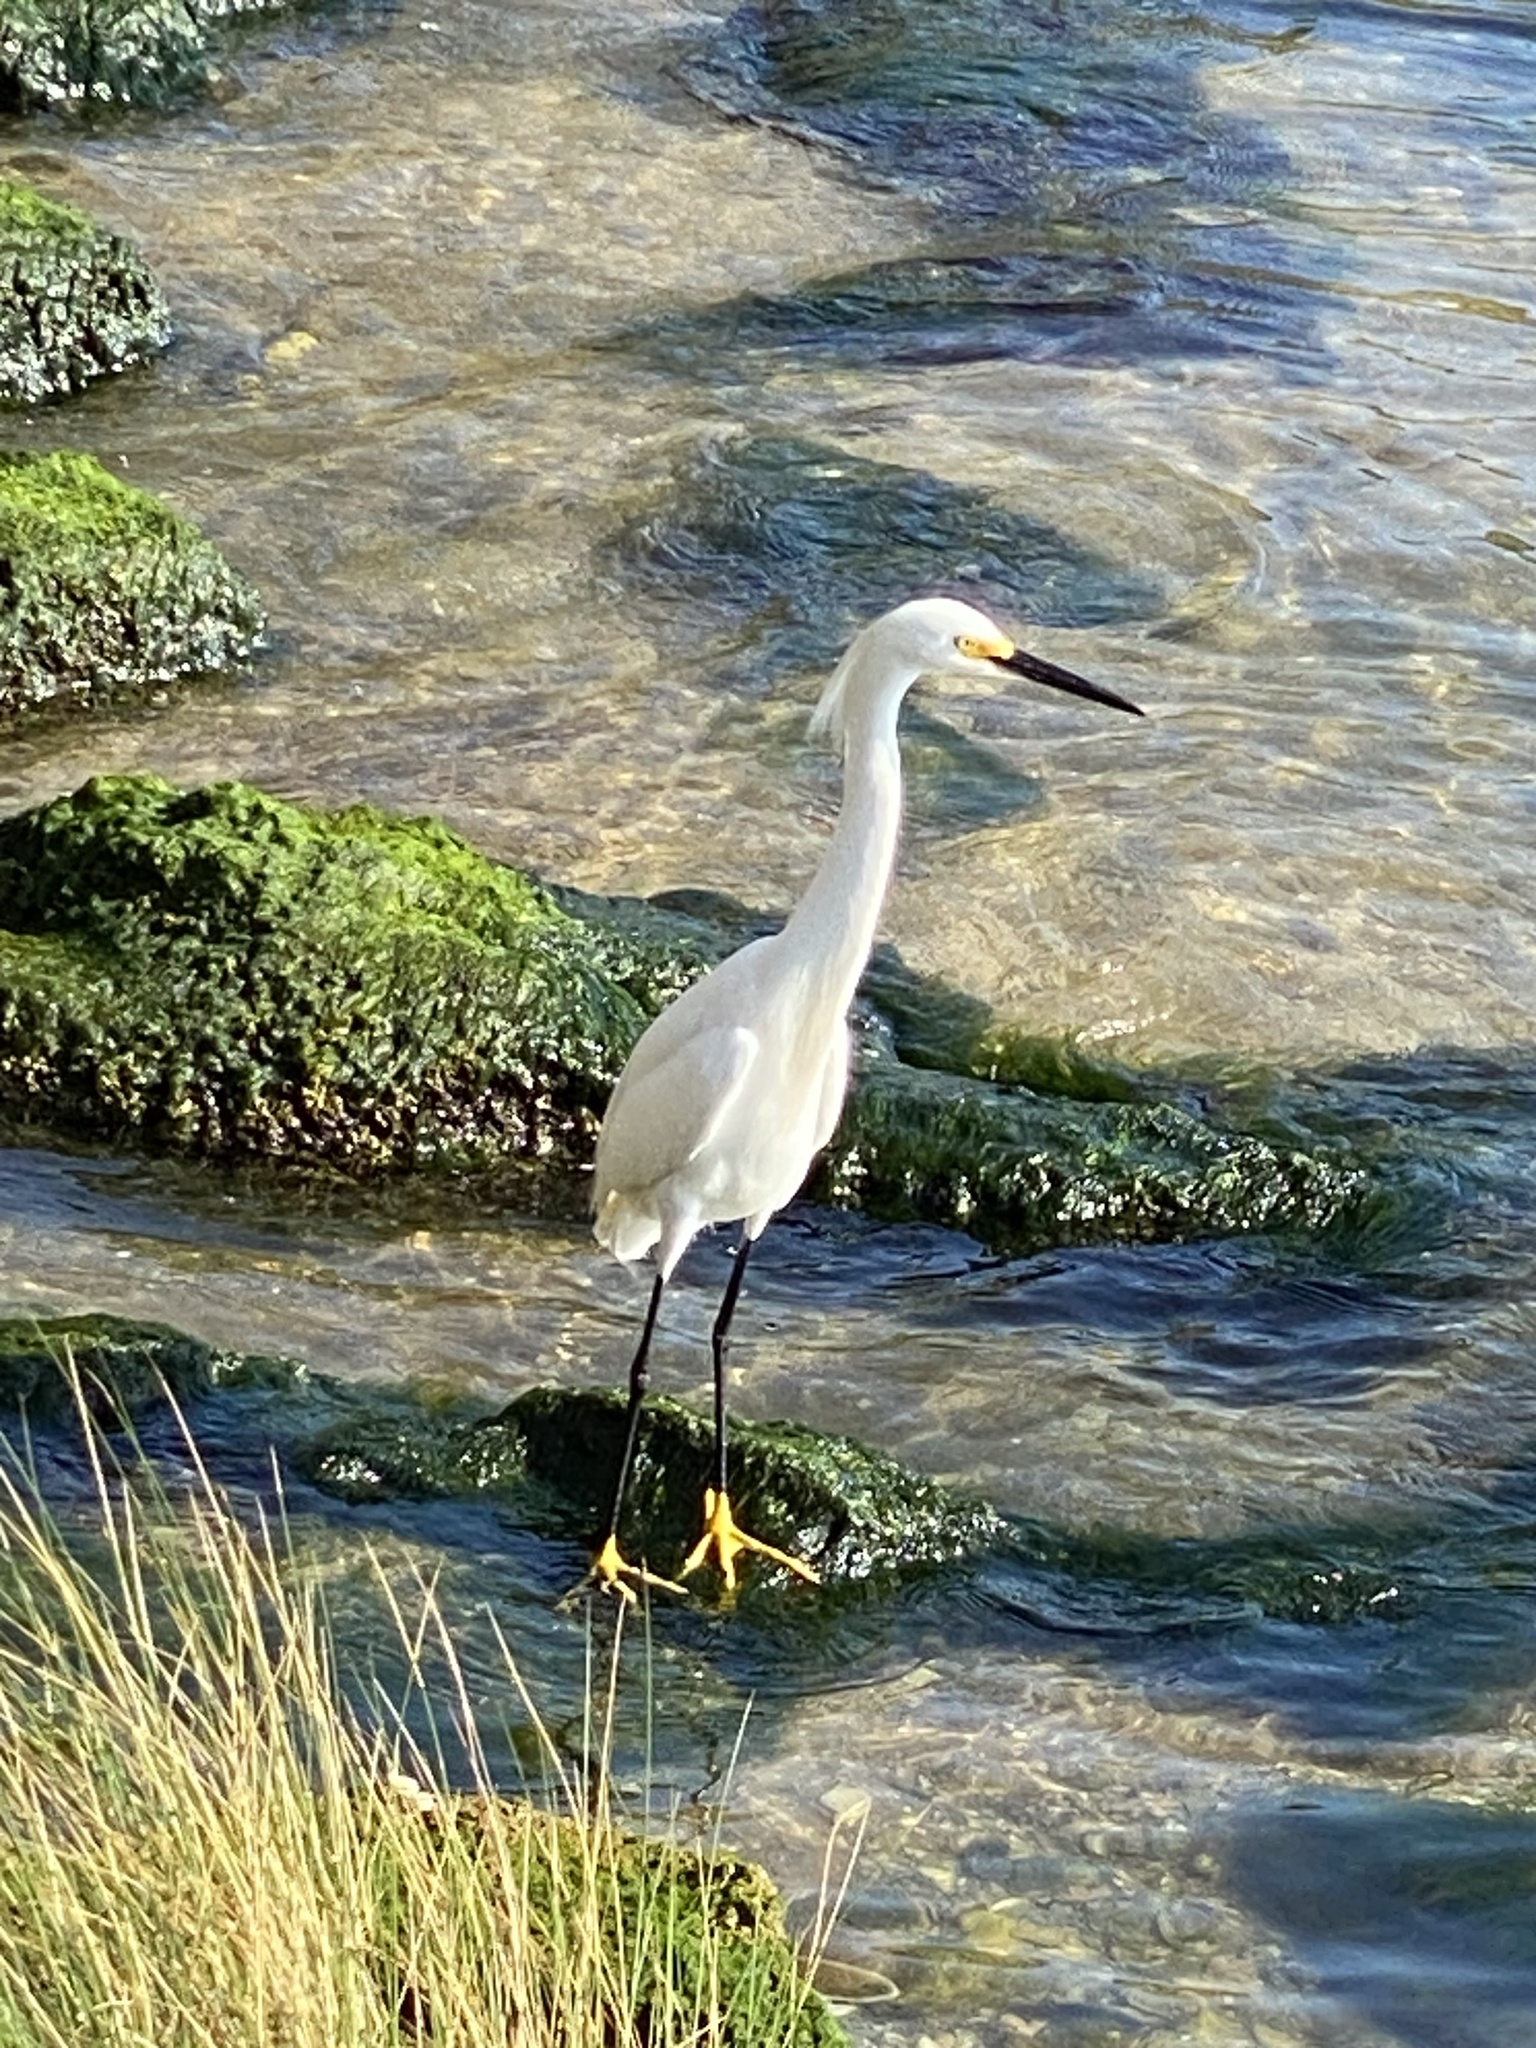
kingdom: Animalia
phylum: Chordata
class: Aves
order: Pelecaniformes
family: Ardeidae
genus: Egretta
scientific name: Egretta thula
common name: Snowy egret
